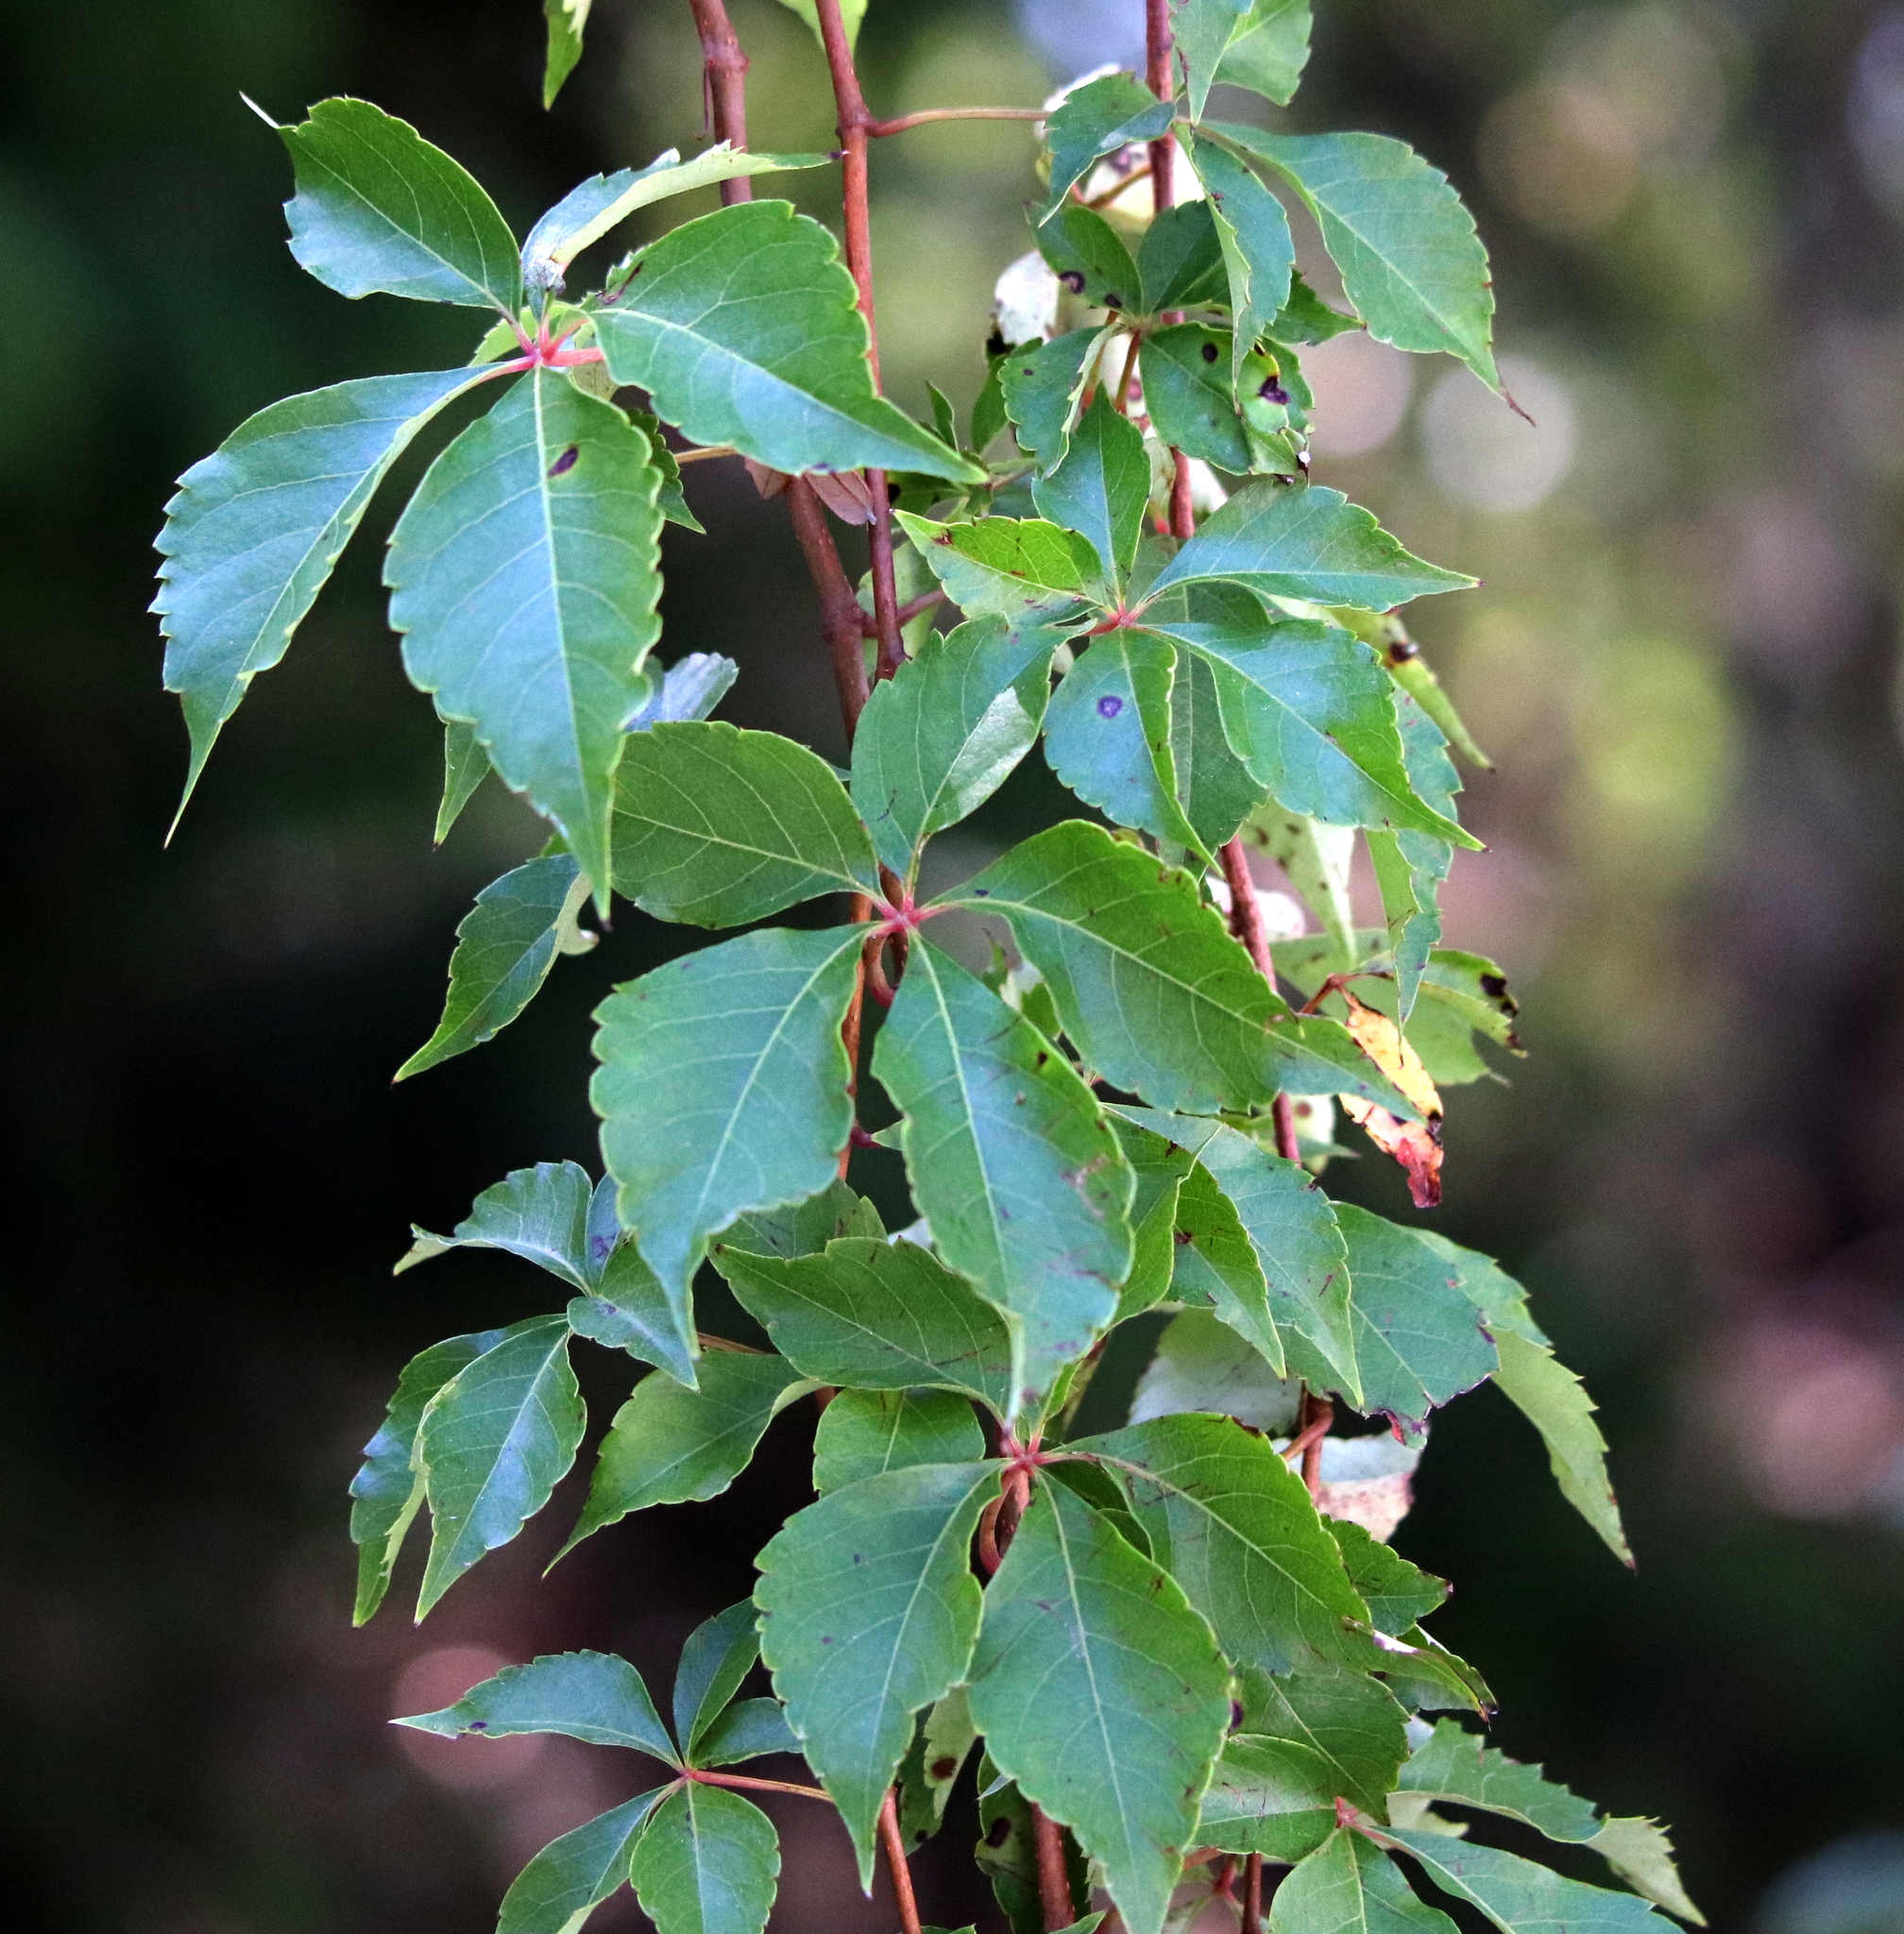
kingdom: Plantae
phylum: Tracheophyta
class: Magnoliopsida
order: Vitales
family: Vitaceae
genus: Parthenocissus
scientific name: Parthenocissus quinquefolia
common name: Virginia-creeper
